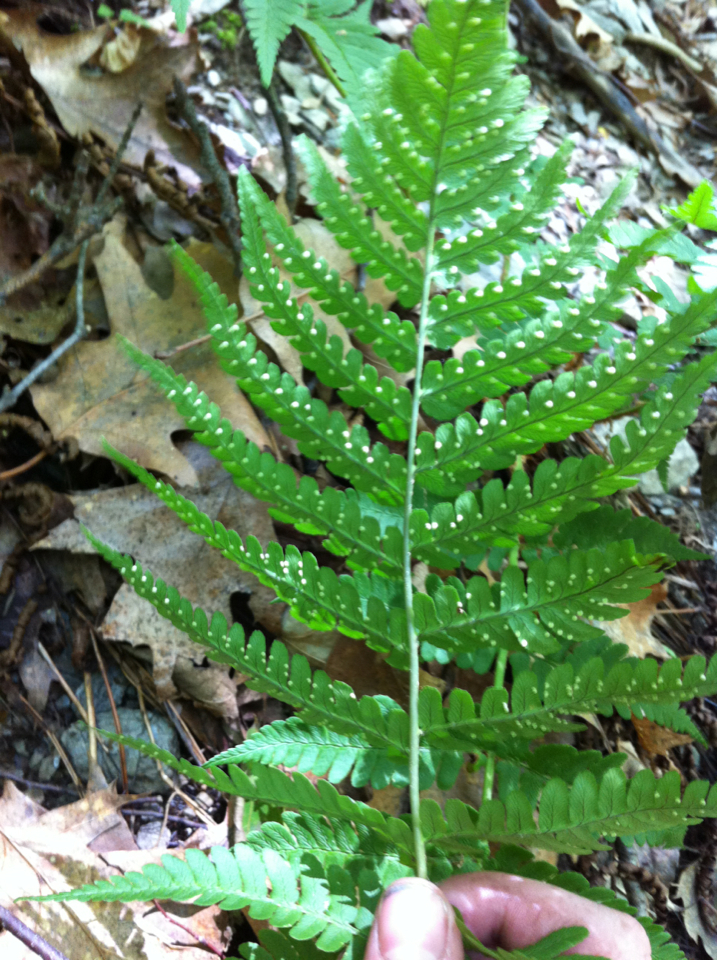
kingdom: Plantae
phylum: Tracheophyta
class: Polypodiopsida
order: Polypodiales
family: Dryopteridaceae
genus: Dryopteris
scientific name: Dryopteris marginalis
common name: Marginal wood fern
